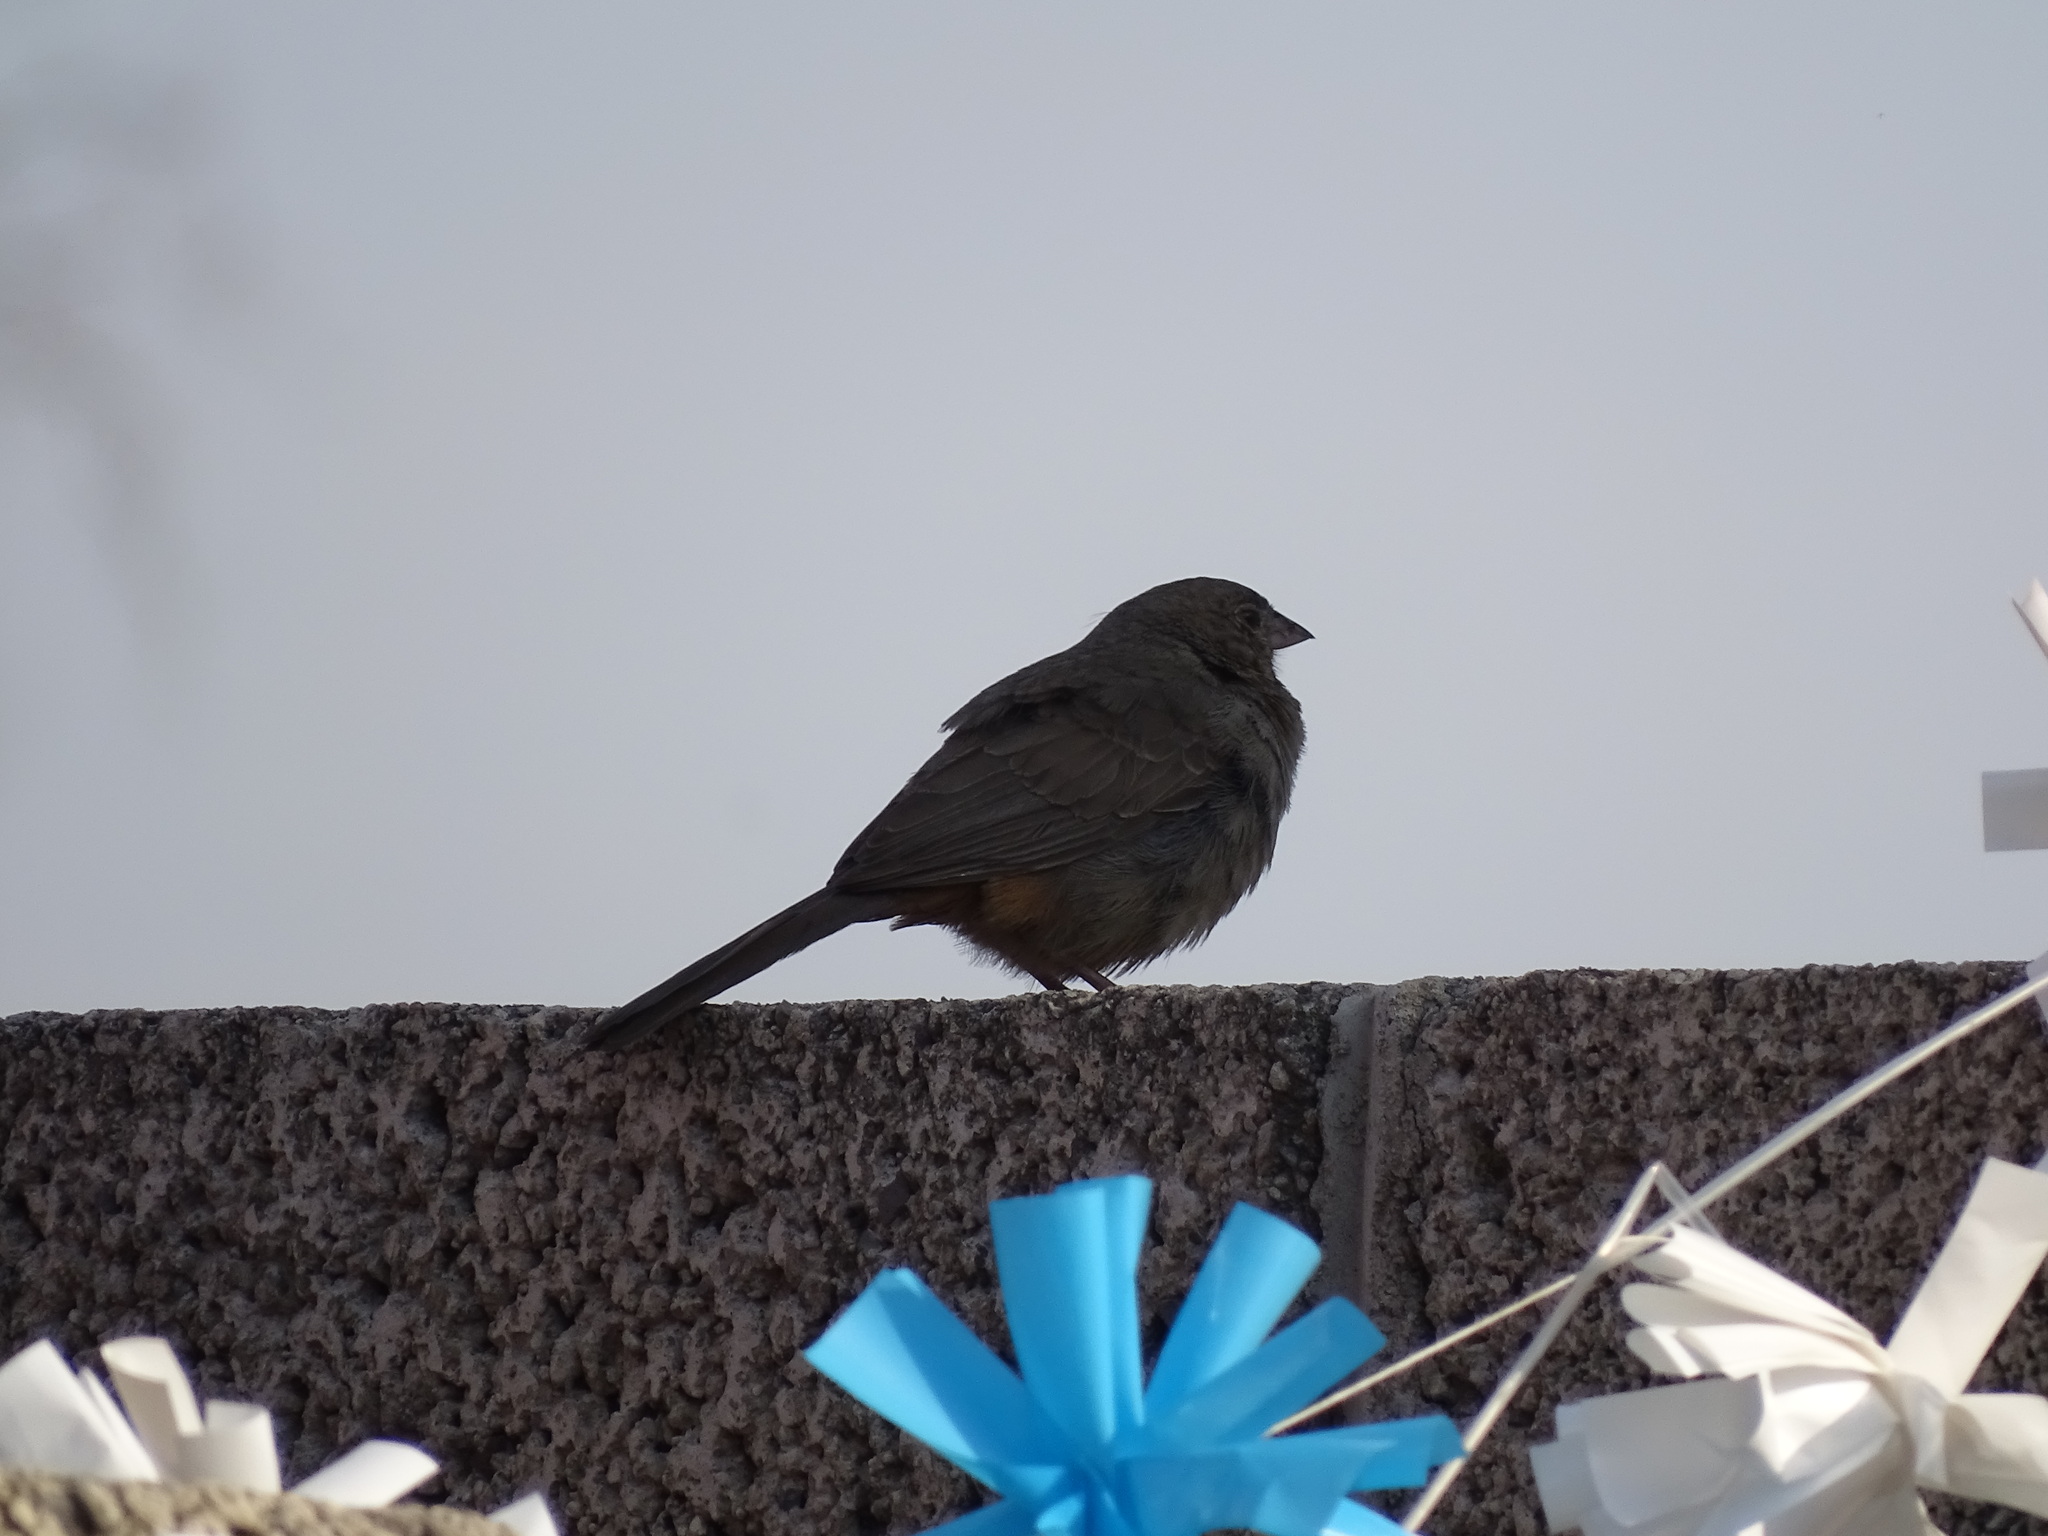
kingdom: Animalia
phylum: Chordata
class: Aves
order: Passeriformes
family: Passerellidae
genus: Melozone
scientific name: Melozone fusca
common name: Canyon towhee
